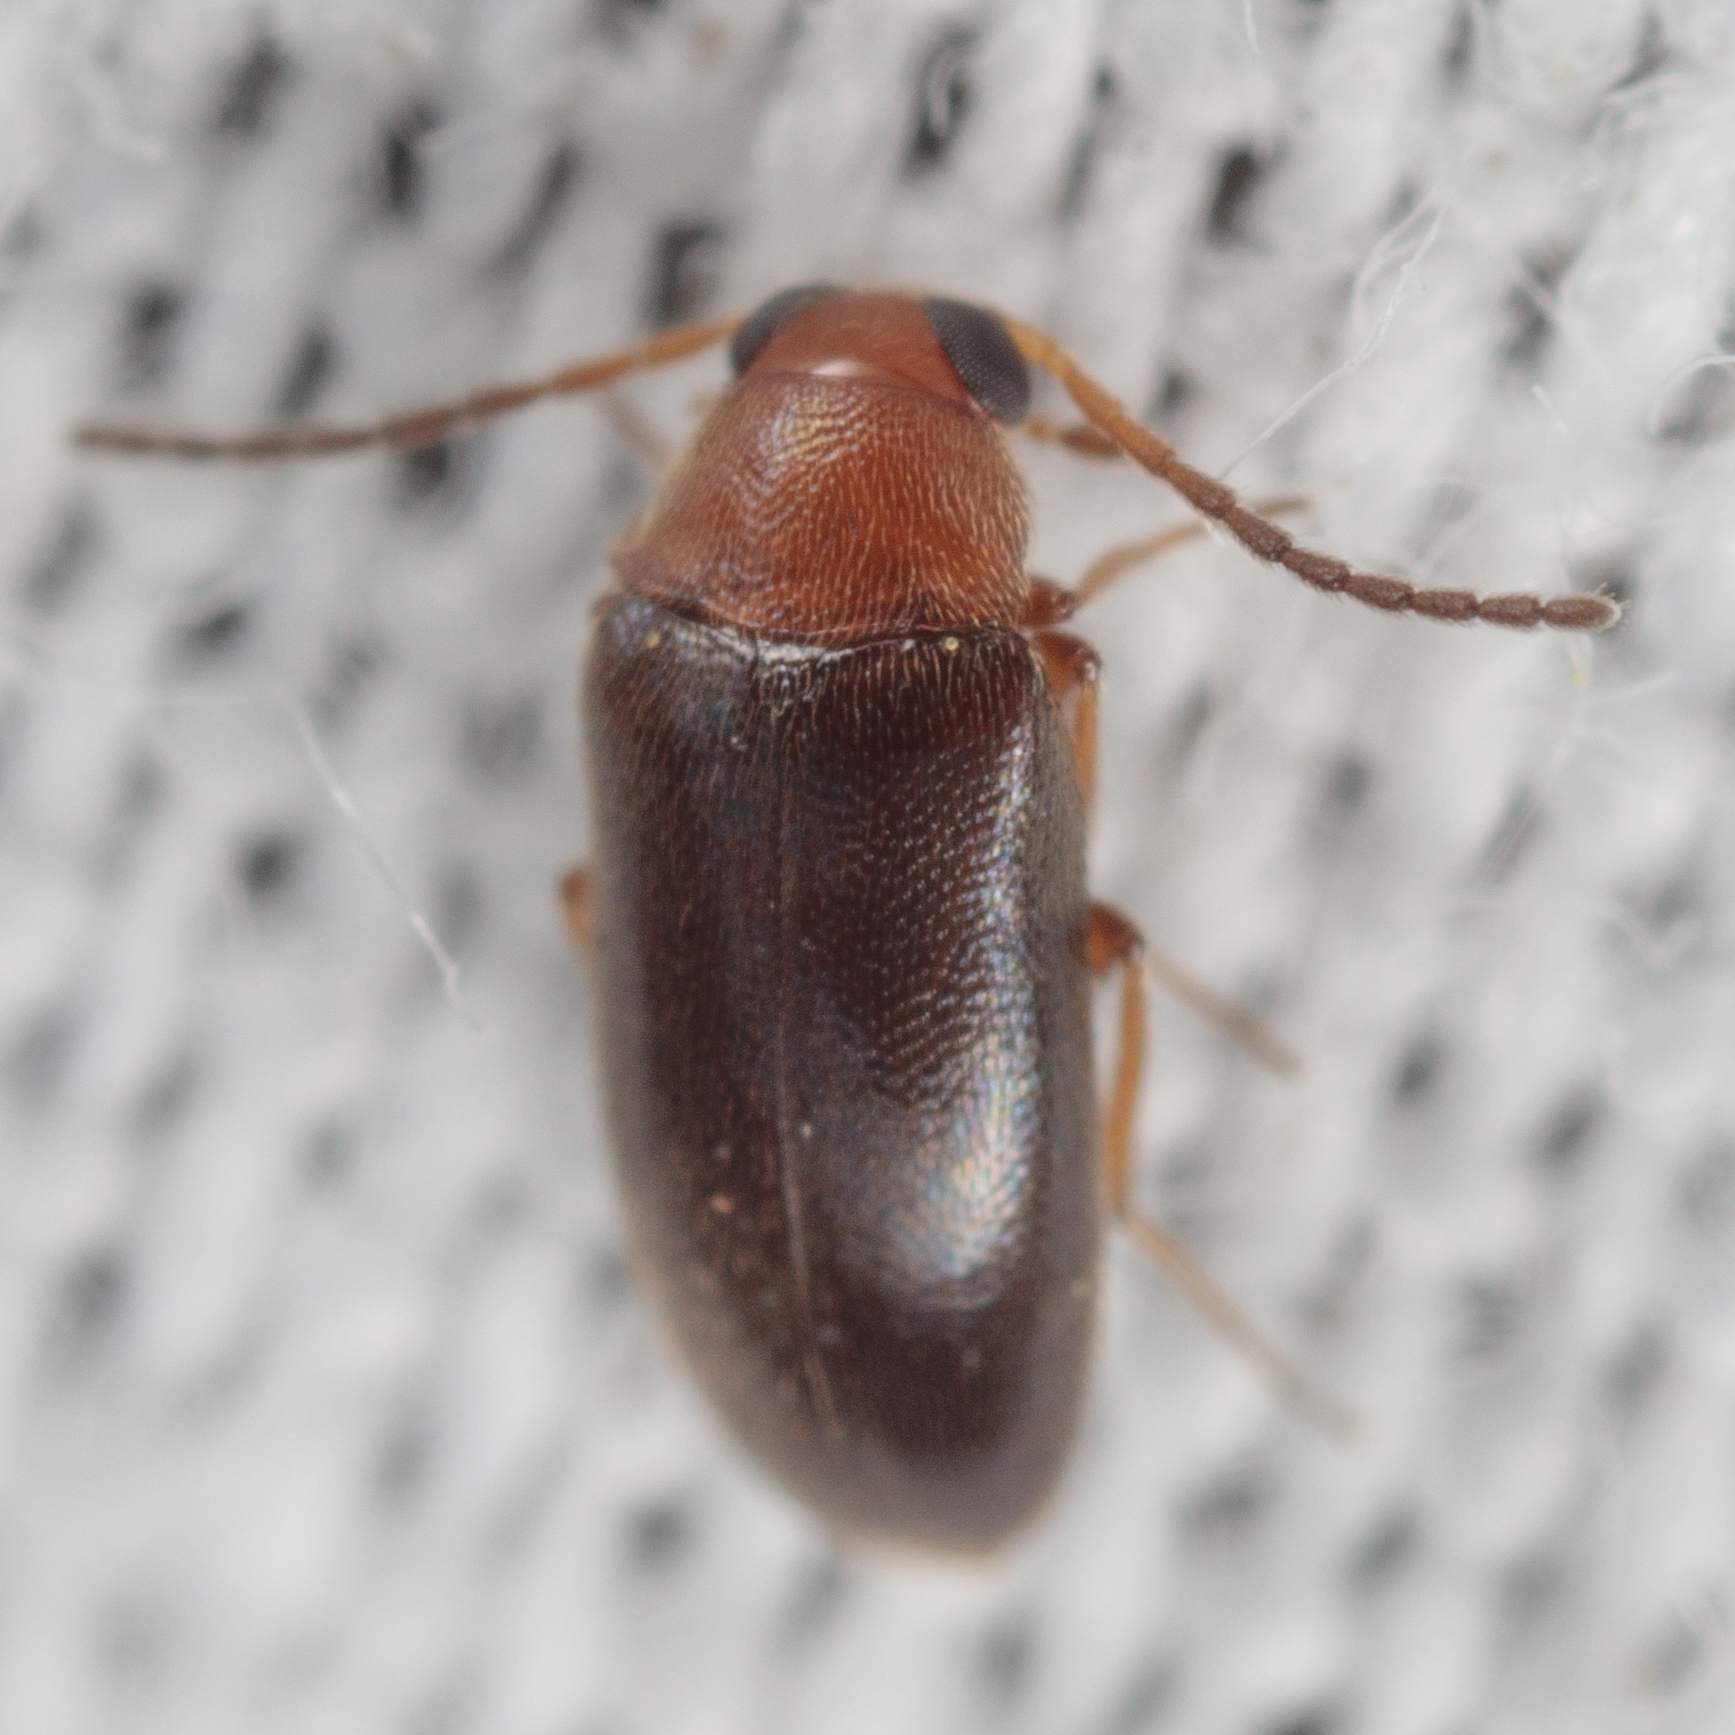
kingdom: Animalia
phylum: Arthropoda
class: Insecta
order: Coleoptera
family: Melandryidae
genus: Symphora
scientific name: Symphora flavicollis
